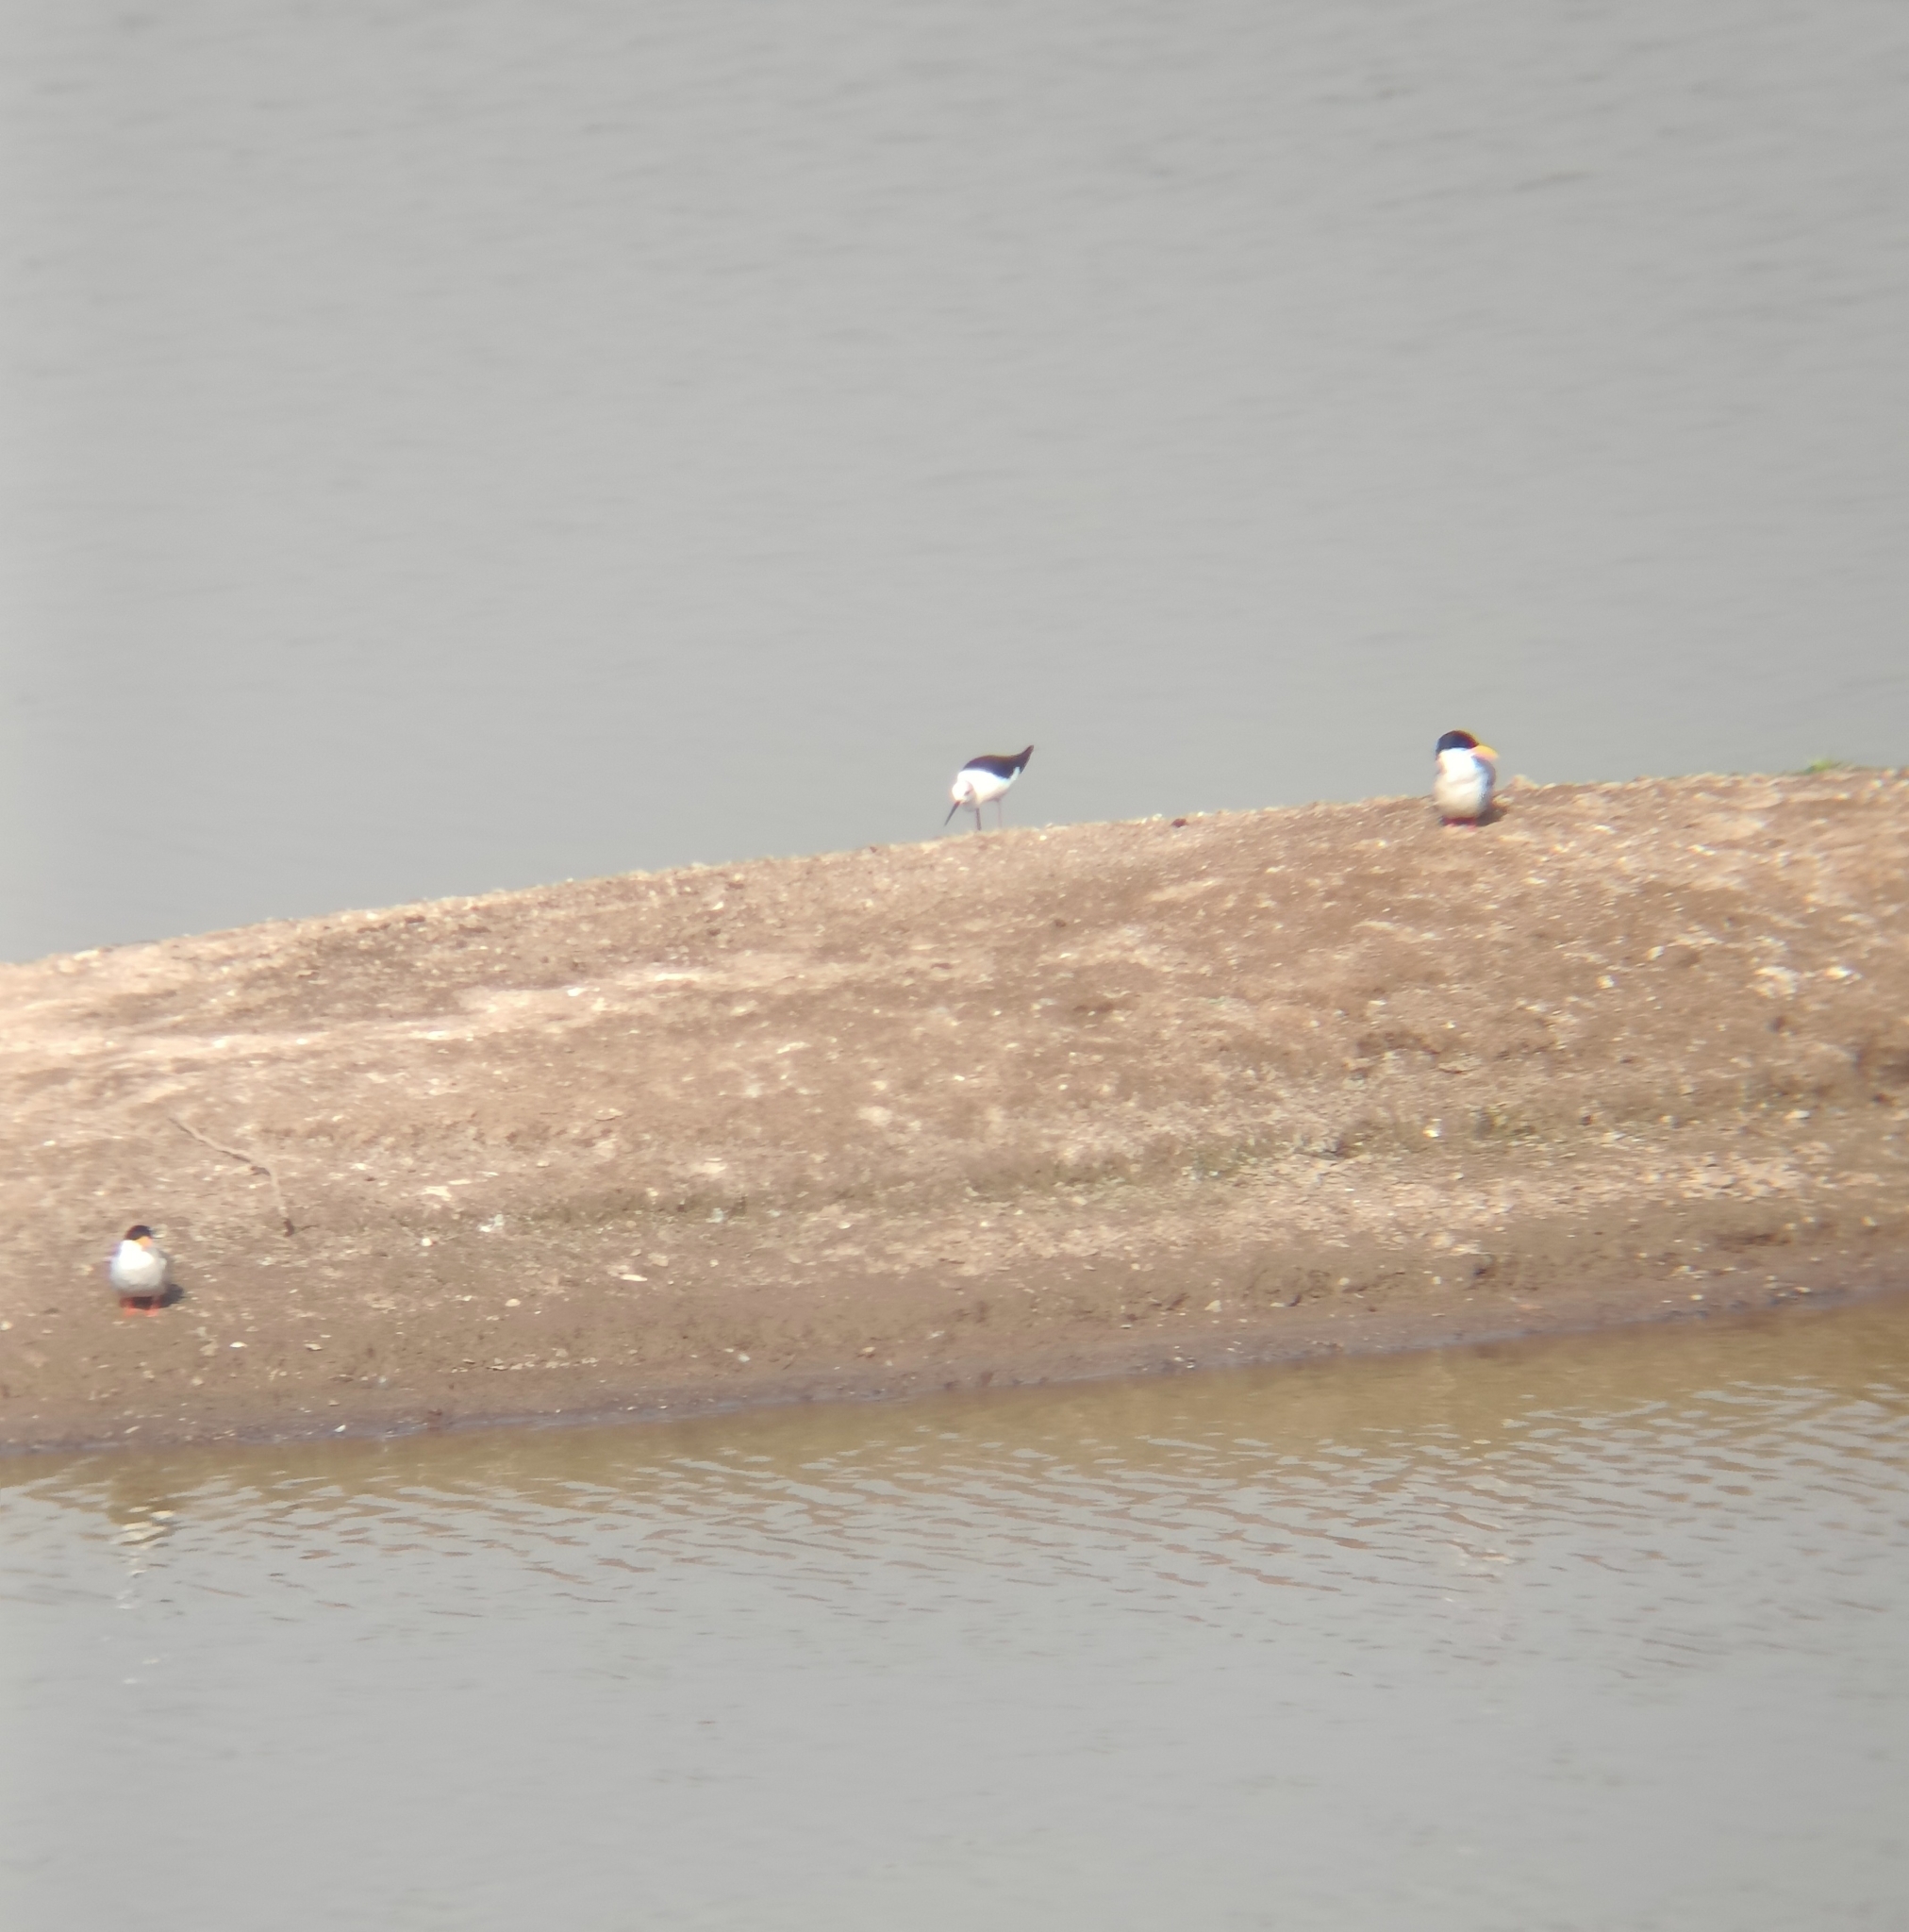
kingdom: Animalia
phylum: Chordata
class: Aves
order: Charadriiformes
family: Laridae
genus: Sterna
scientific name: Sterna aurantia
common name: River tern
